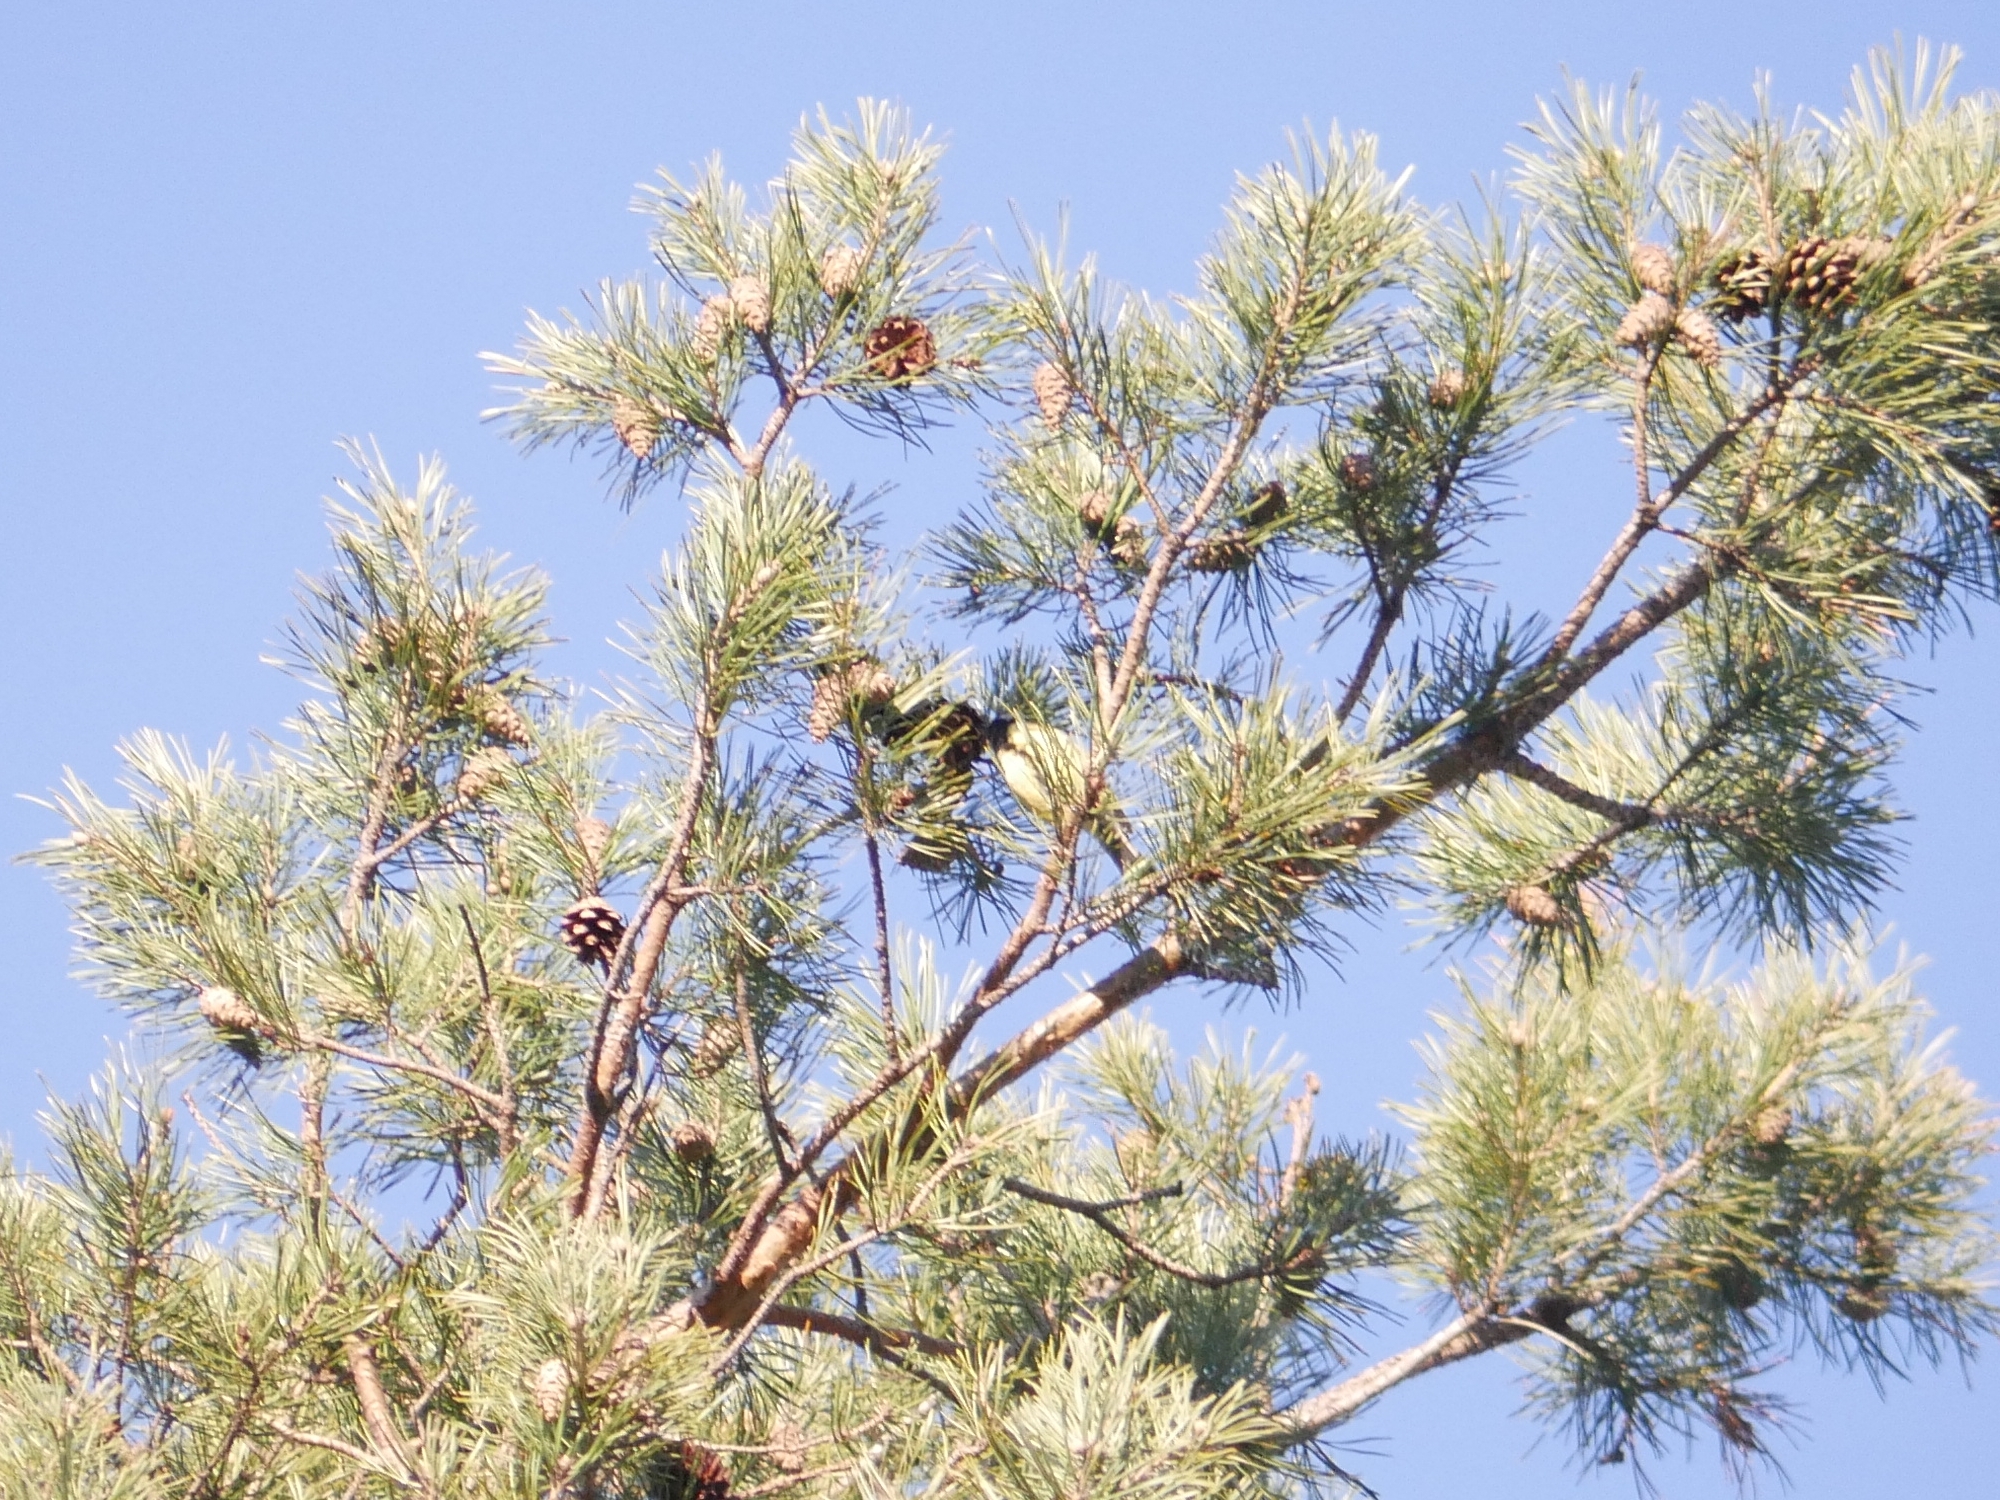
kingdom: Animalia
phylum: Chordata
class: Aves
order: Passeriformes
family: Paridae
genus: Parus
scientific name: Parus major
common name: Great tit
